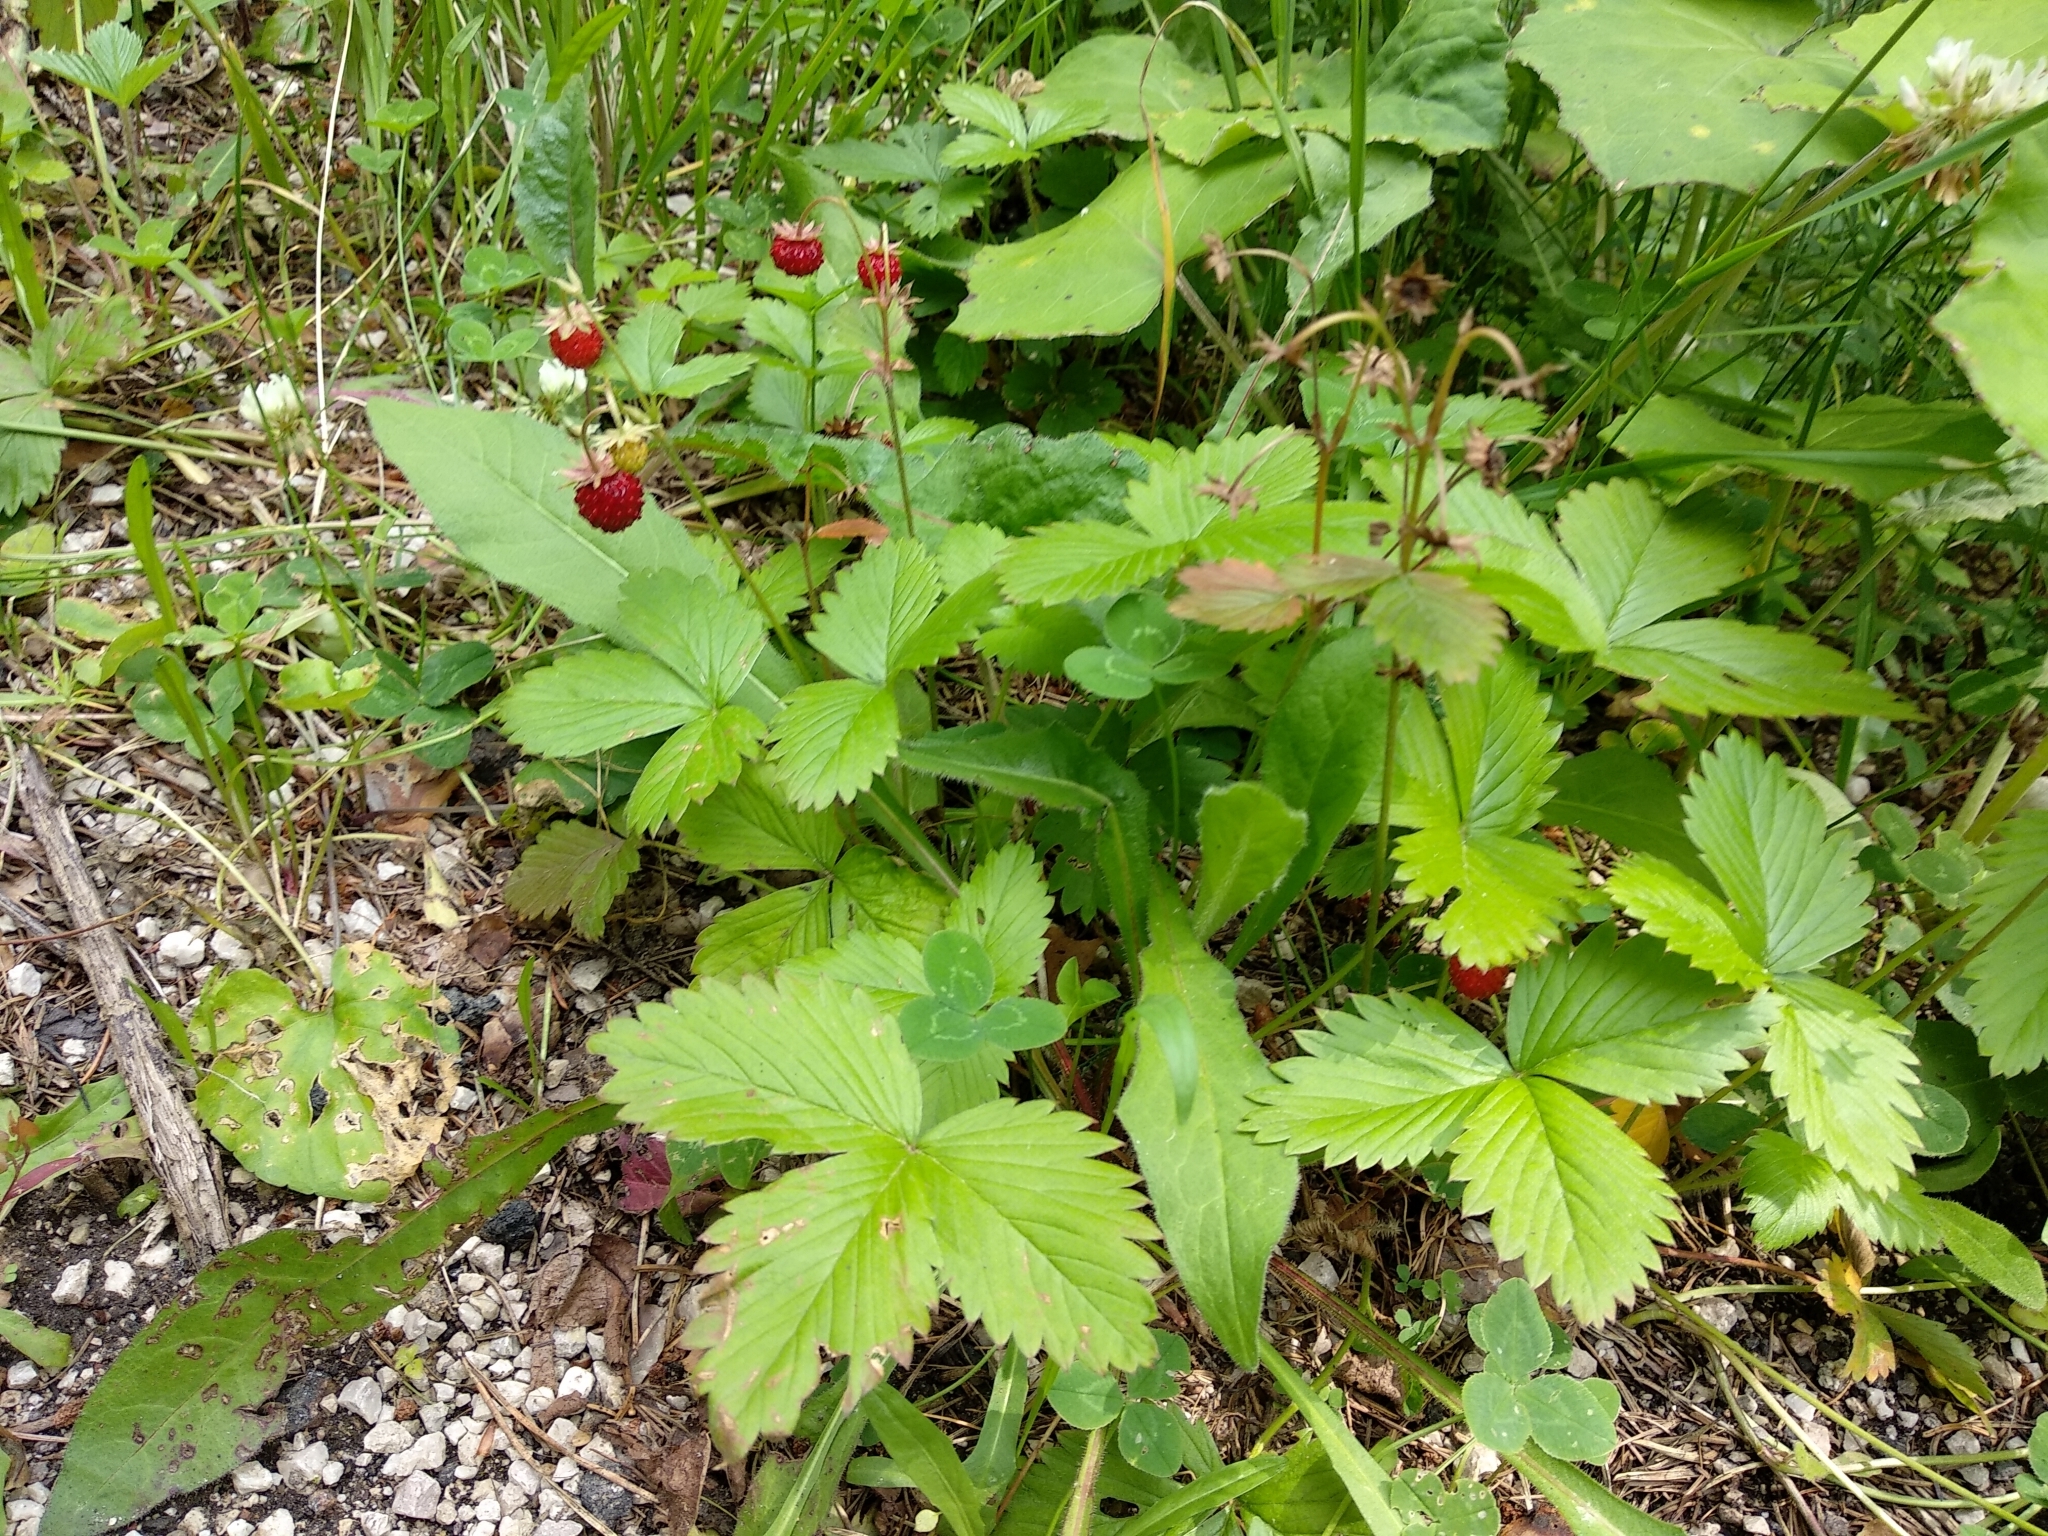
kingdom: Plantae
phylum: Tracheophyta
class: Magnoliopsida
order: Rosales
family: Rosaceae
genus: Fragaria
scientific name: Fragaria vesca
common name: Wild strawberry
